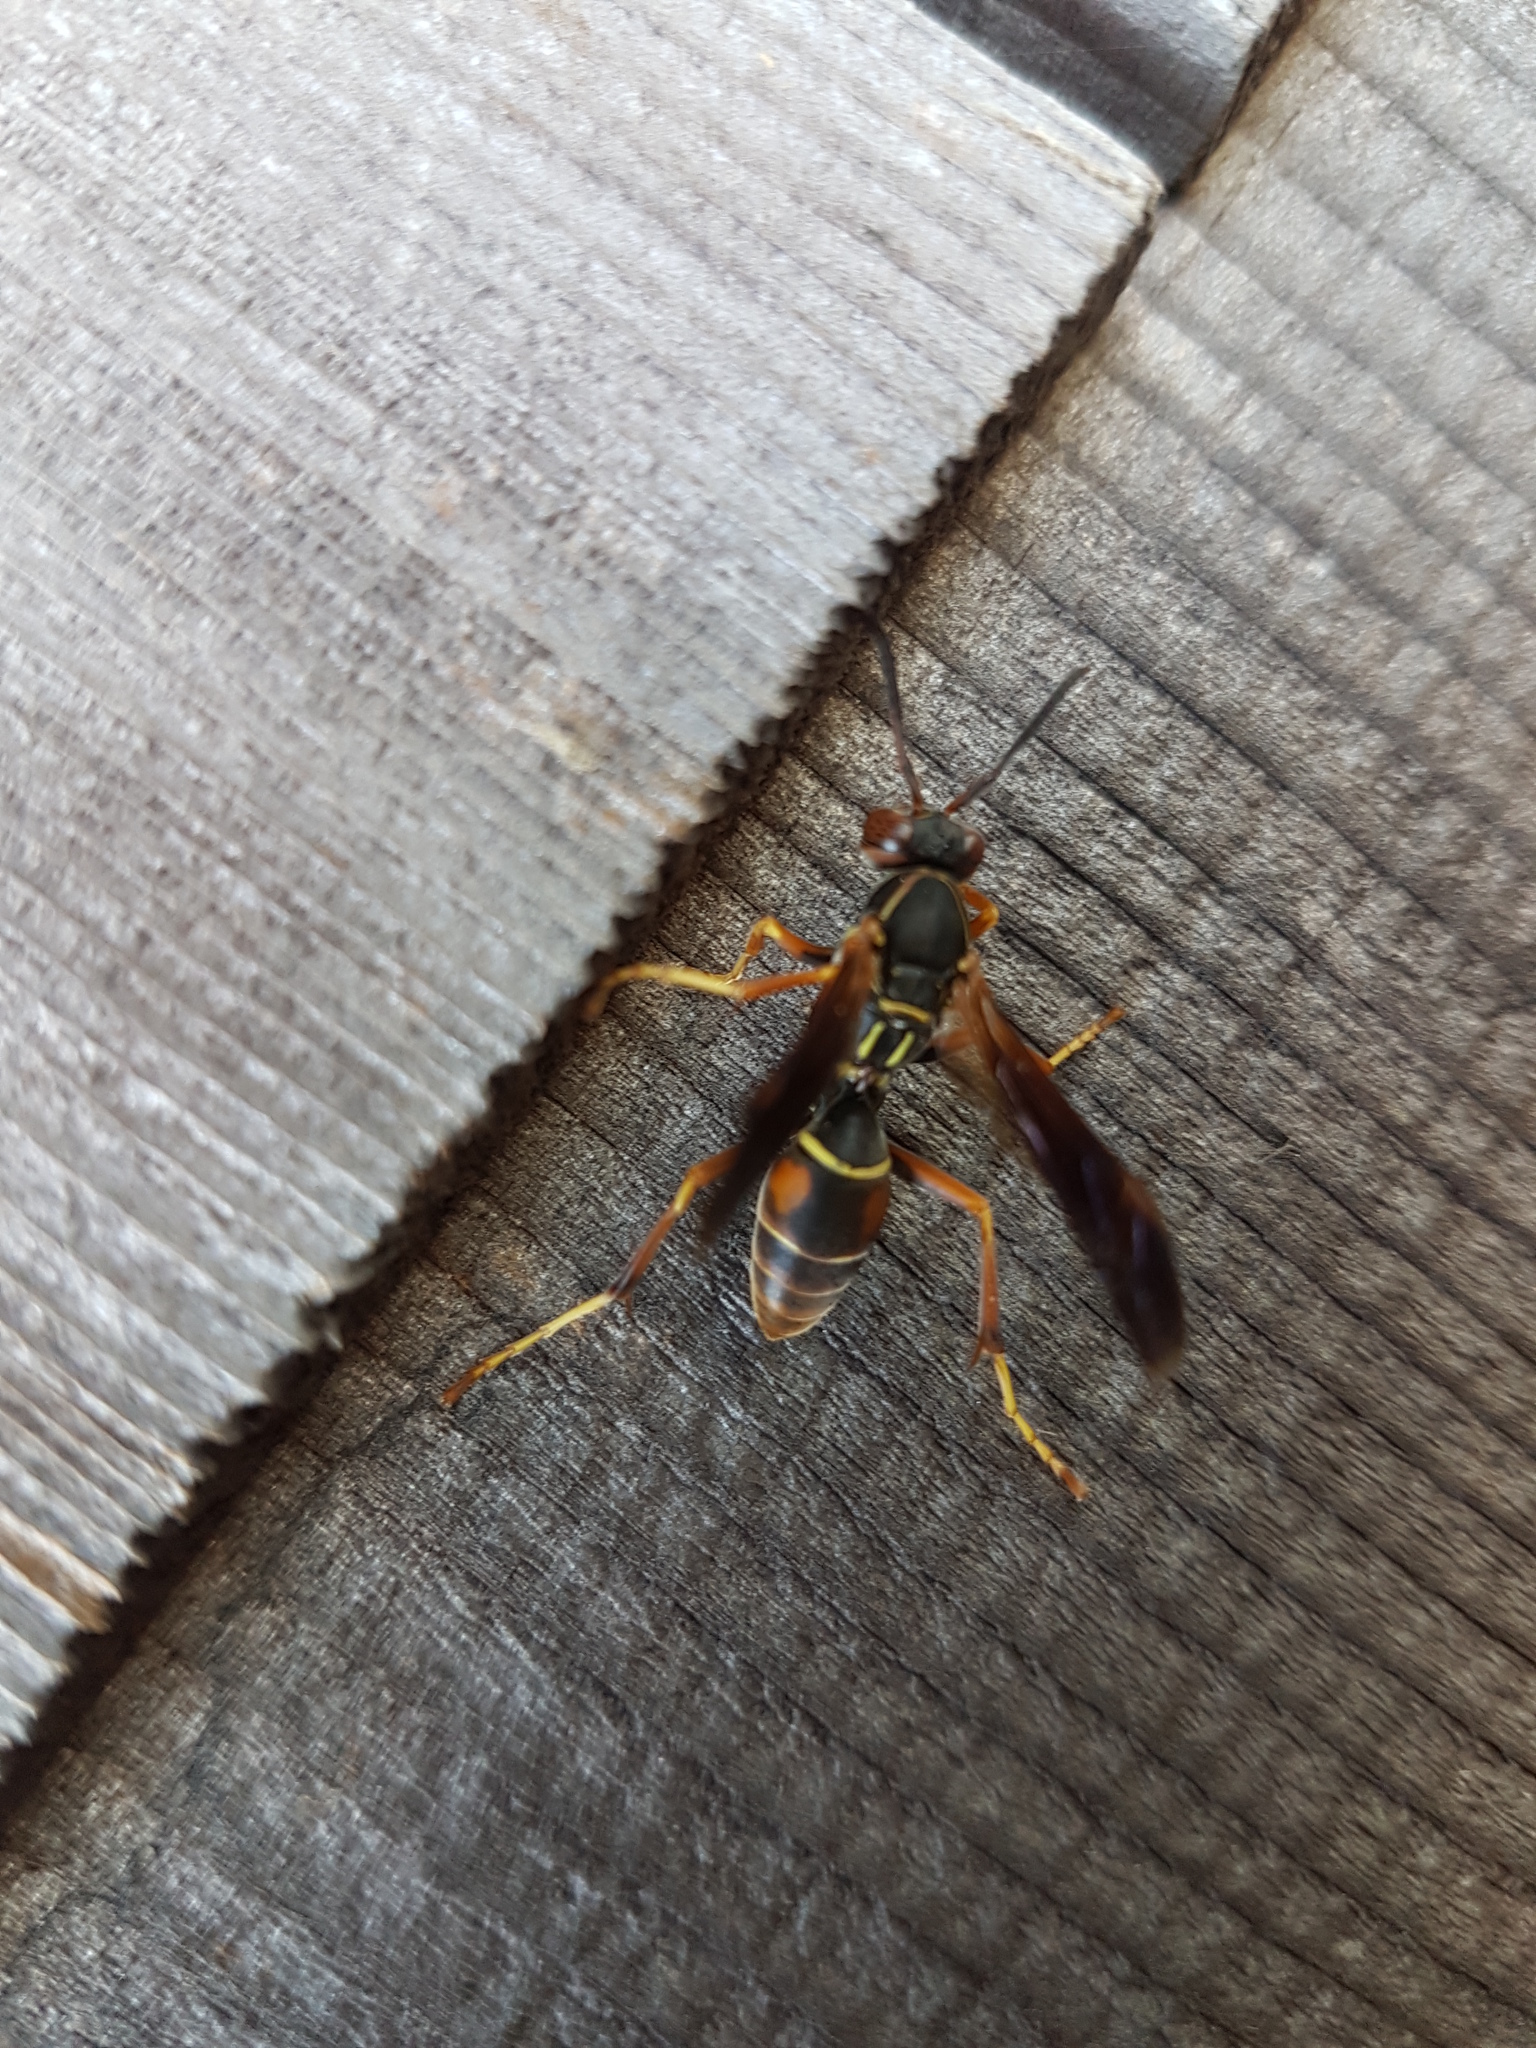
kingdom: Animalia
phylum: Arthropoda
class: Insecta
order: Hymenoptera
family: Eumenidae
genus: Polistes
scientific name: Polistes fuscatus
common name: Dark paper wasp
